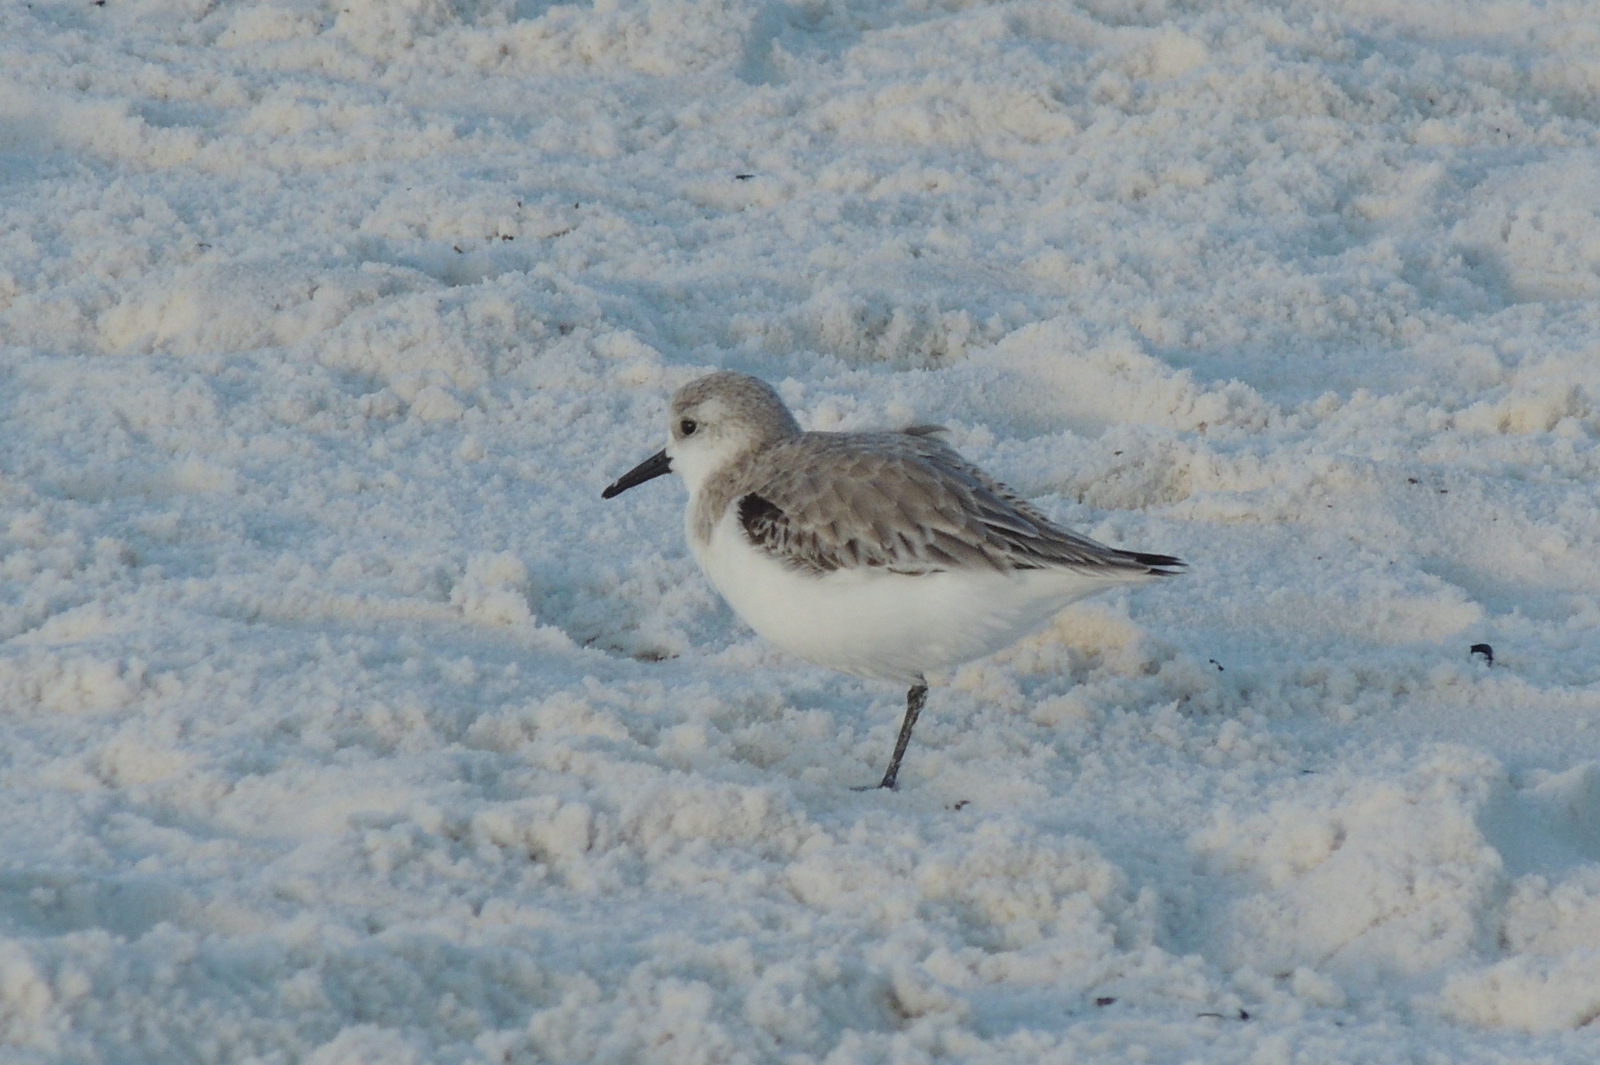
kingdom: Animalia
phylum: Chordata
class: Aves
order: Charadriiformes
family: Scolopacidae
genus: Calidris
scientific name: Calidris alba
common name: Sanderling
